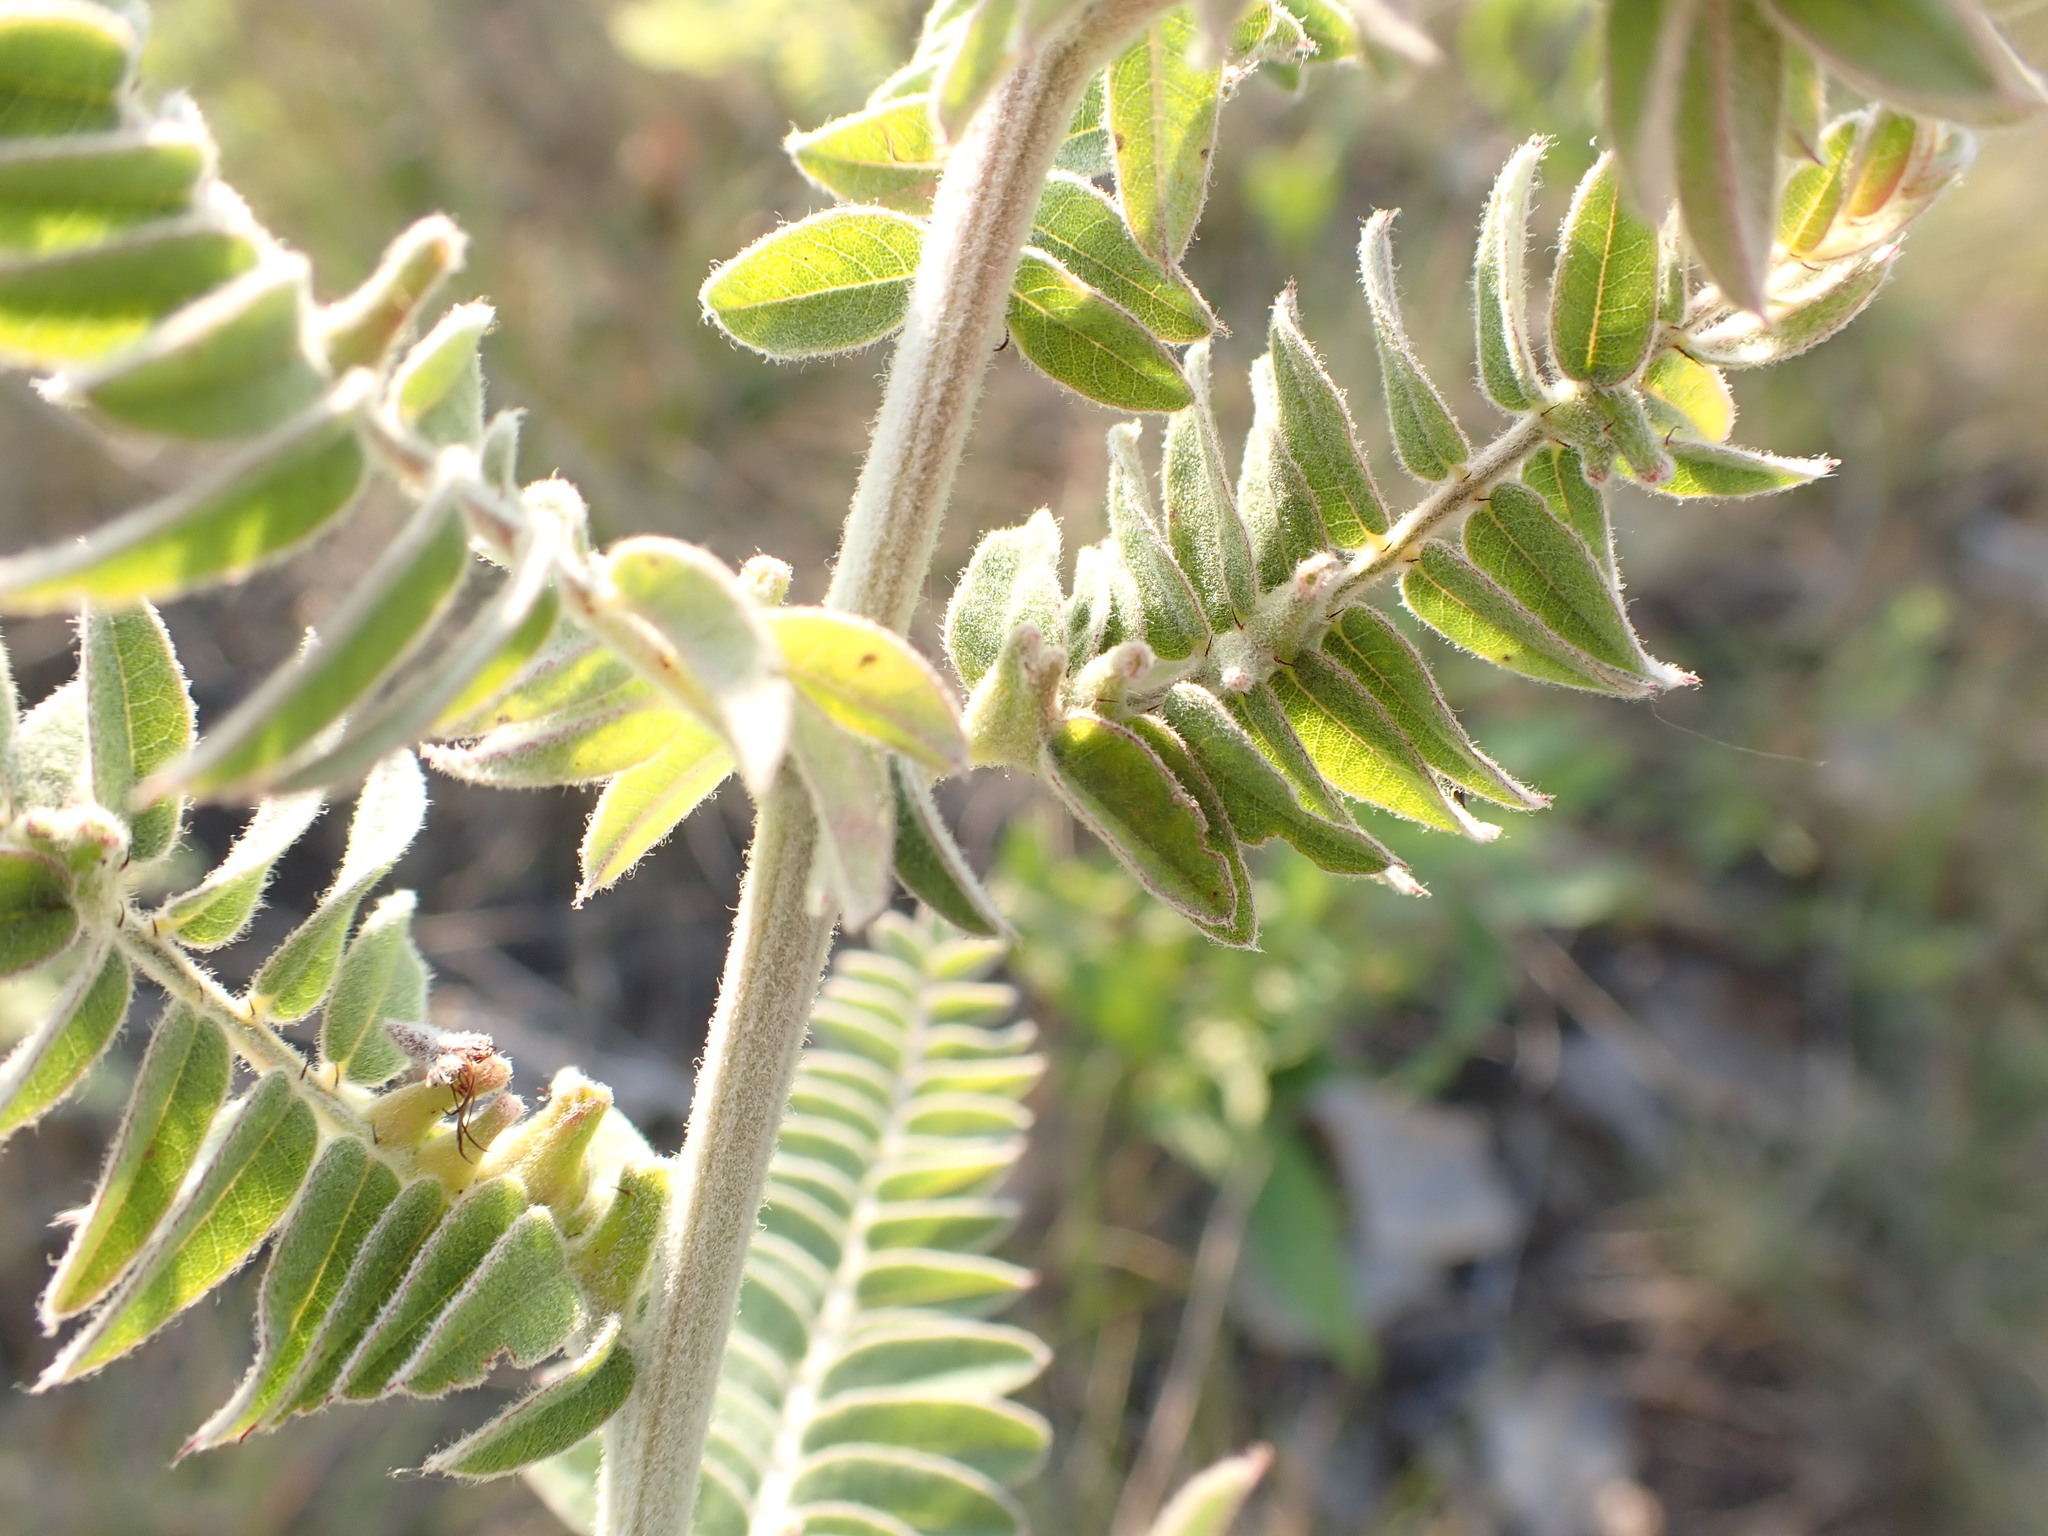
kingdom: Plantae
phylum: Tracheophyta
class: Magnoliopsida
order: Fabales
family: Fabaceae
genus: Amorpha
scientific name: Amorpha canescens
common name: Leadplant
